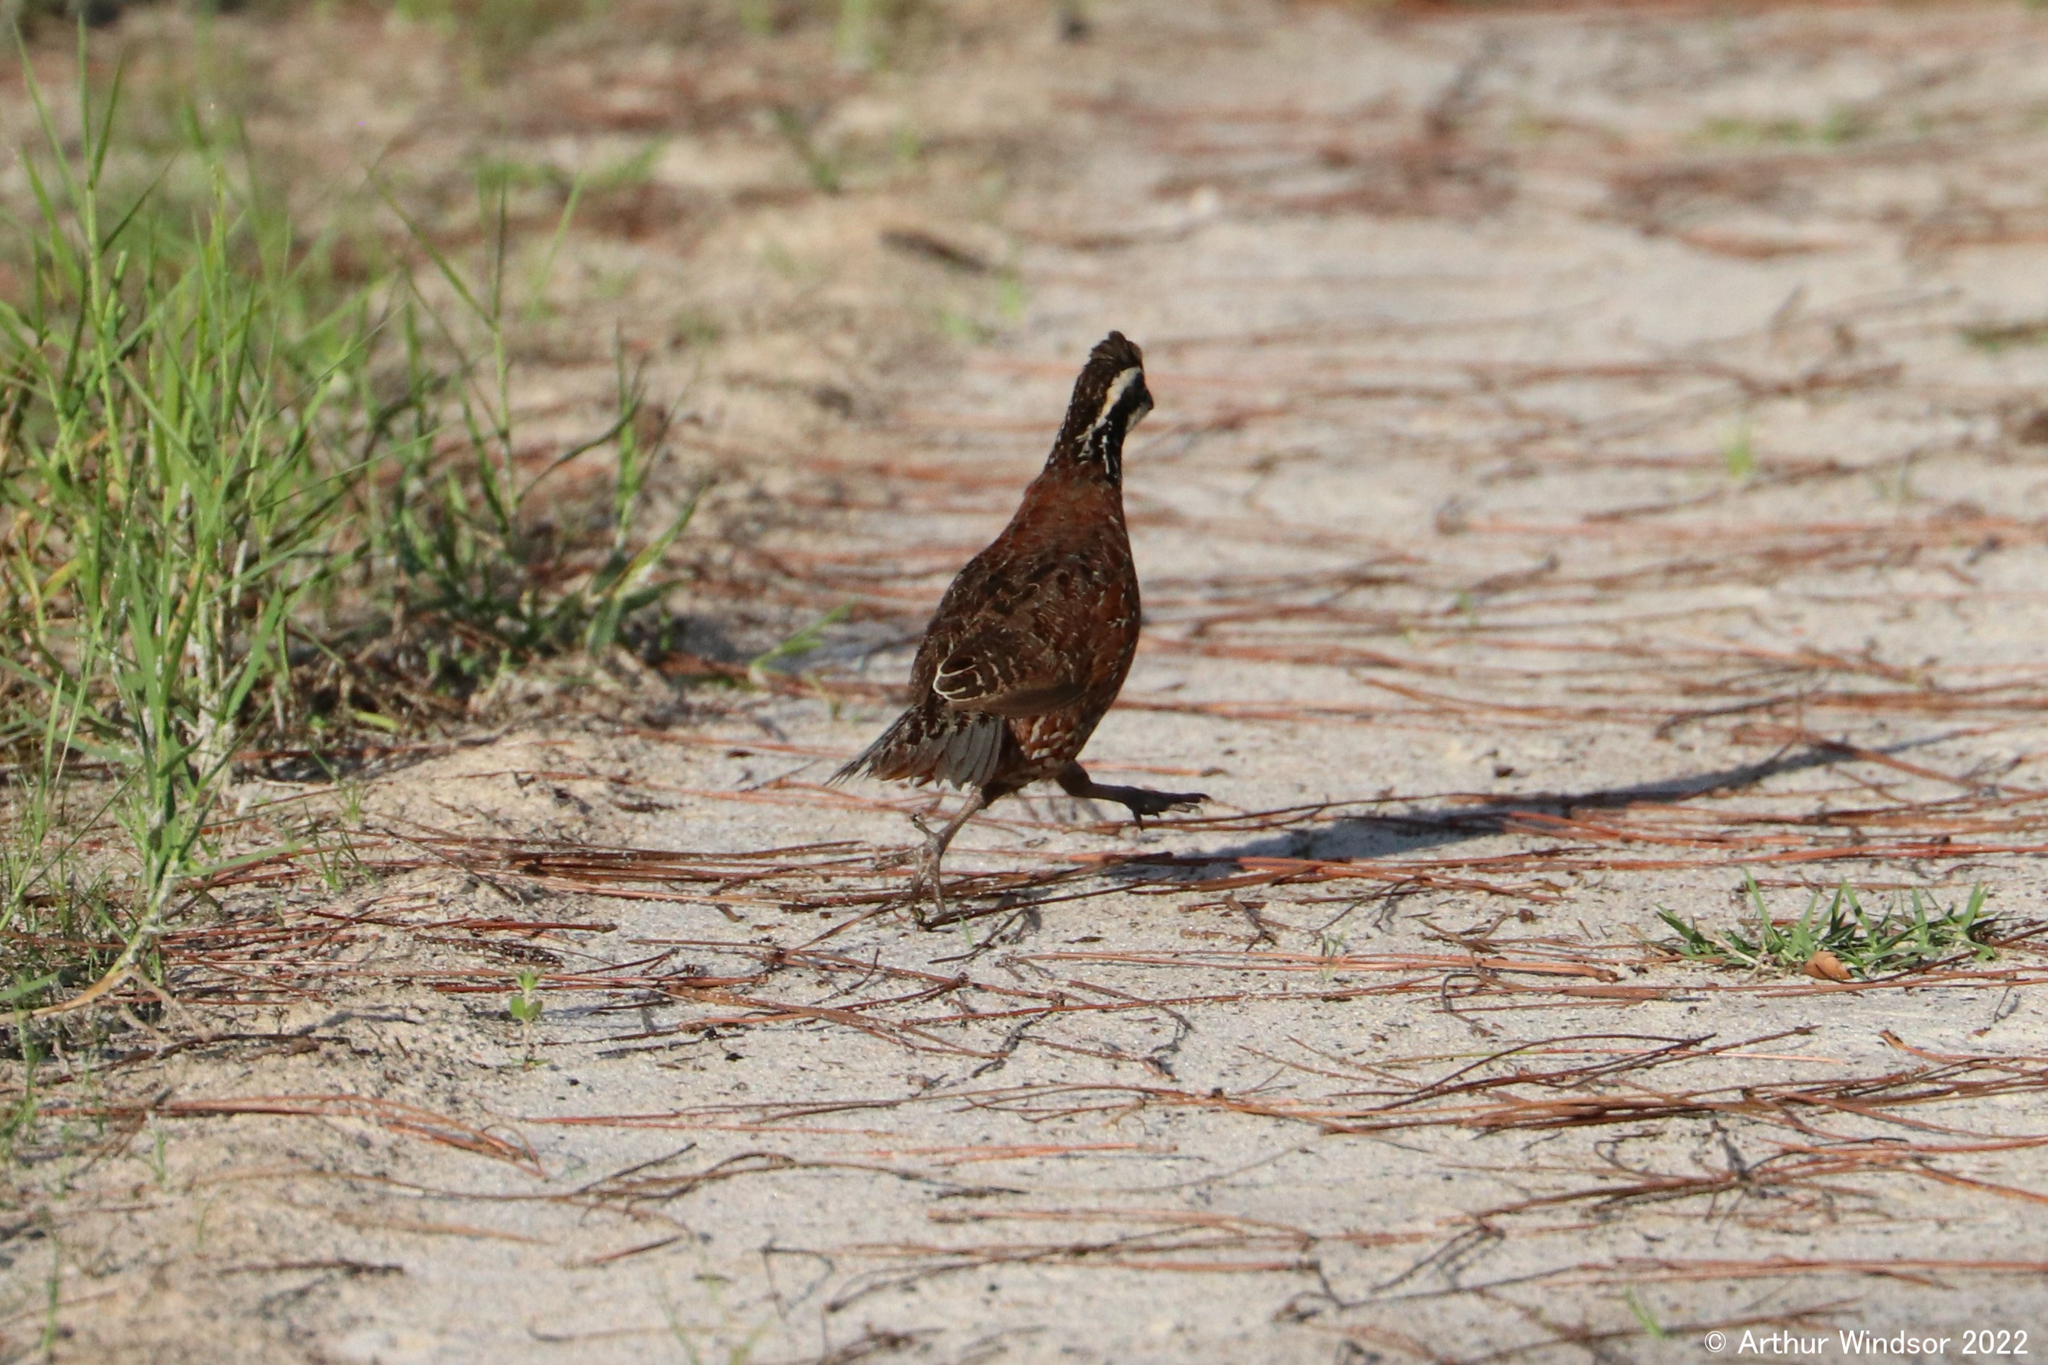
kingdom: Animalia
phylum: Chordata
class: Aves
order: Galliformes
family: Odontophoridae
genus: Colinus
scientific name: Colinus virginianus
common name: Northern bobwhite
